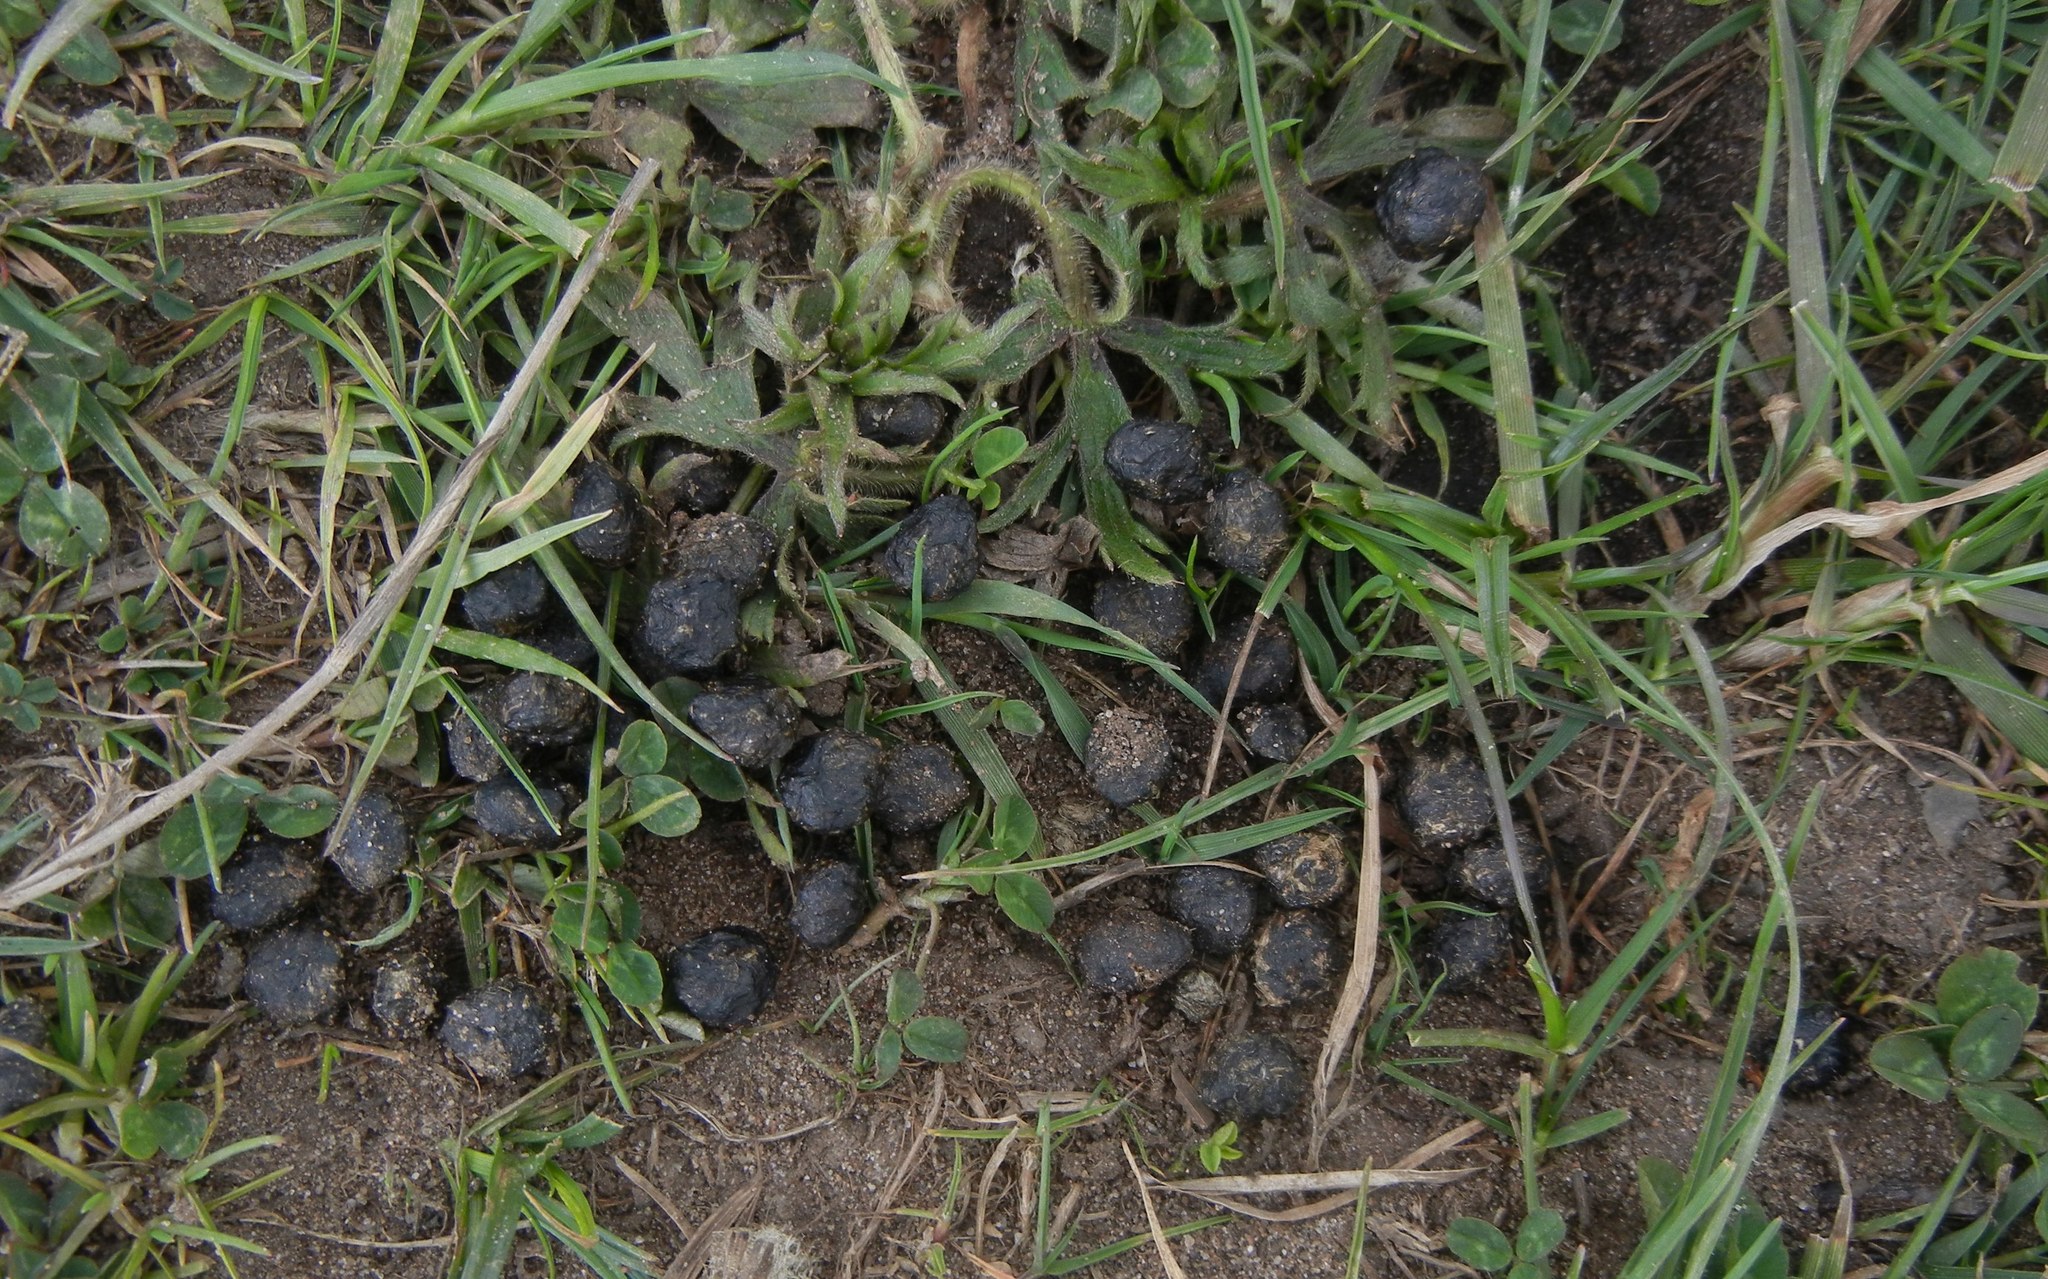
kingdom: Animalia
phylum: Chordata
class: Mammalia
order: Lagomorpha
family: Leporidae
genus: Oryctolagus
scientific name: Oryctolagus cuniculus
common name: European rabbit
